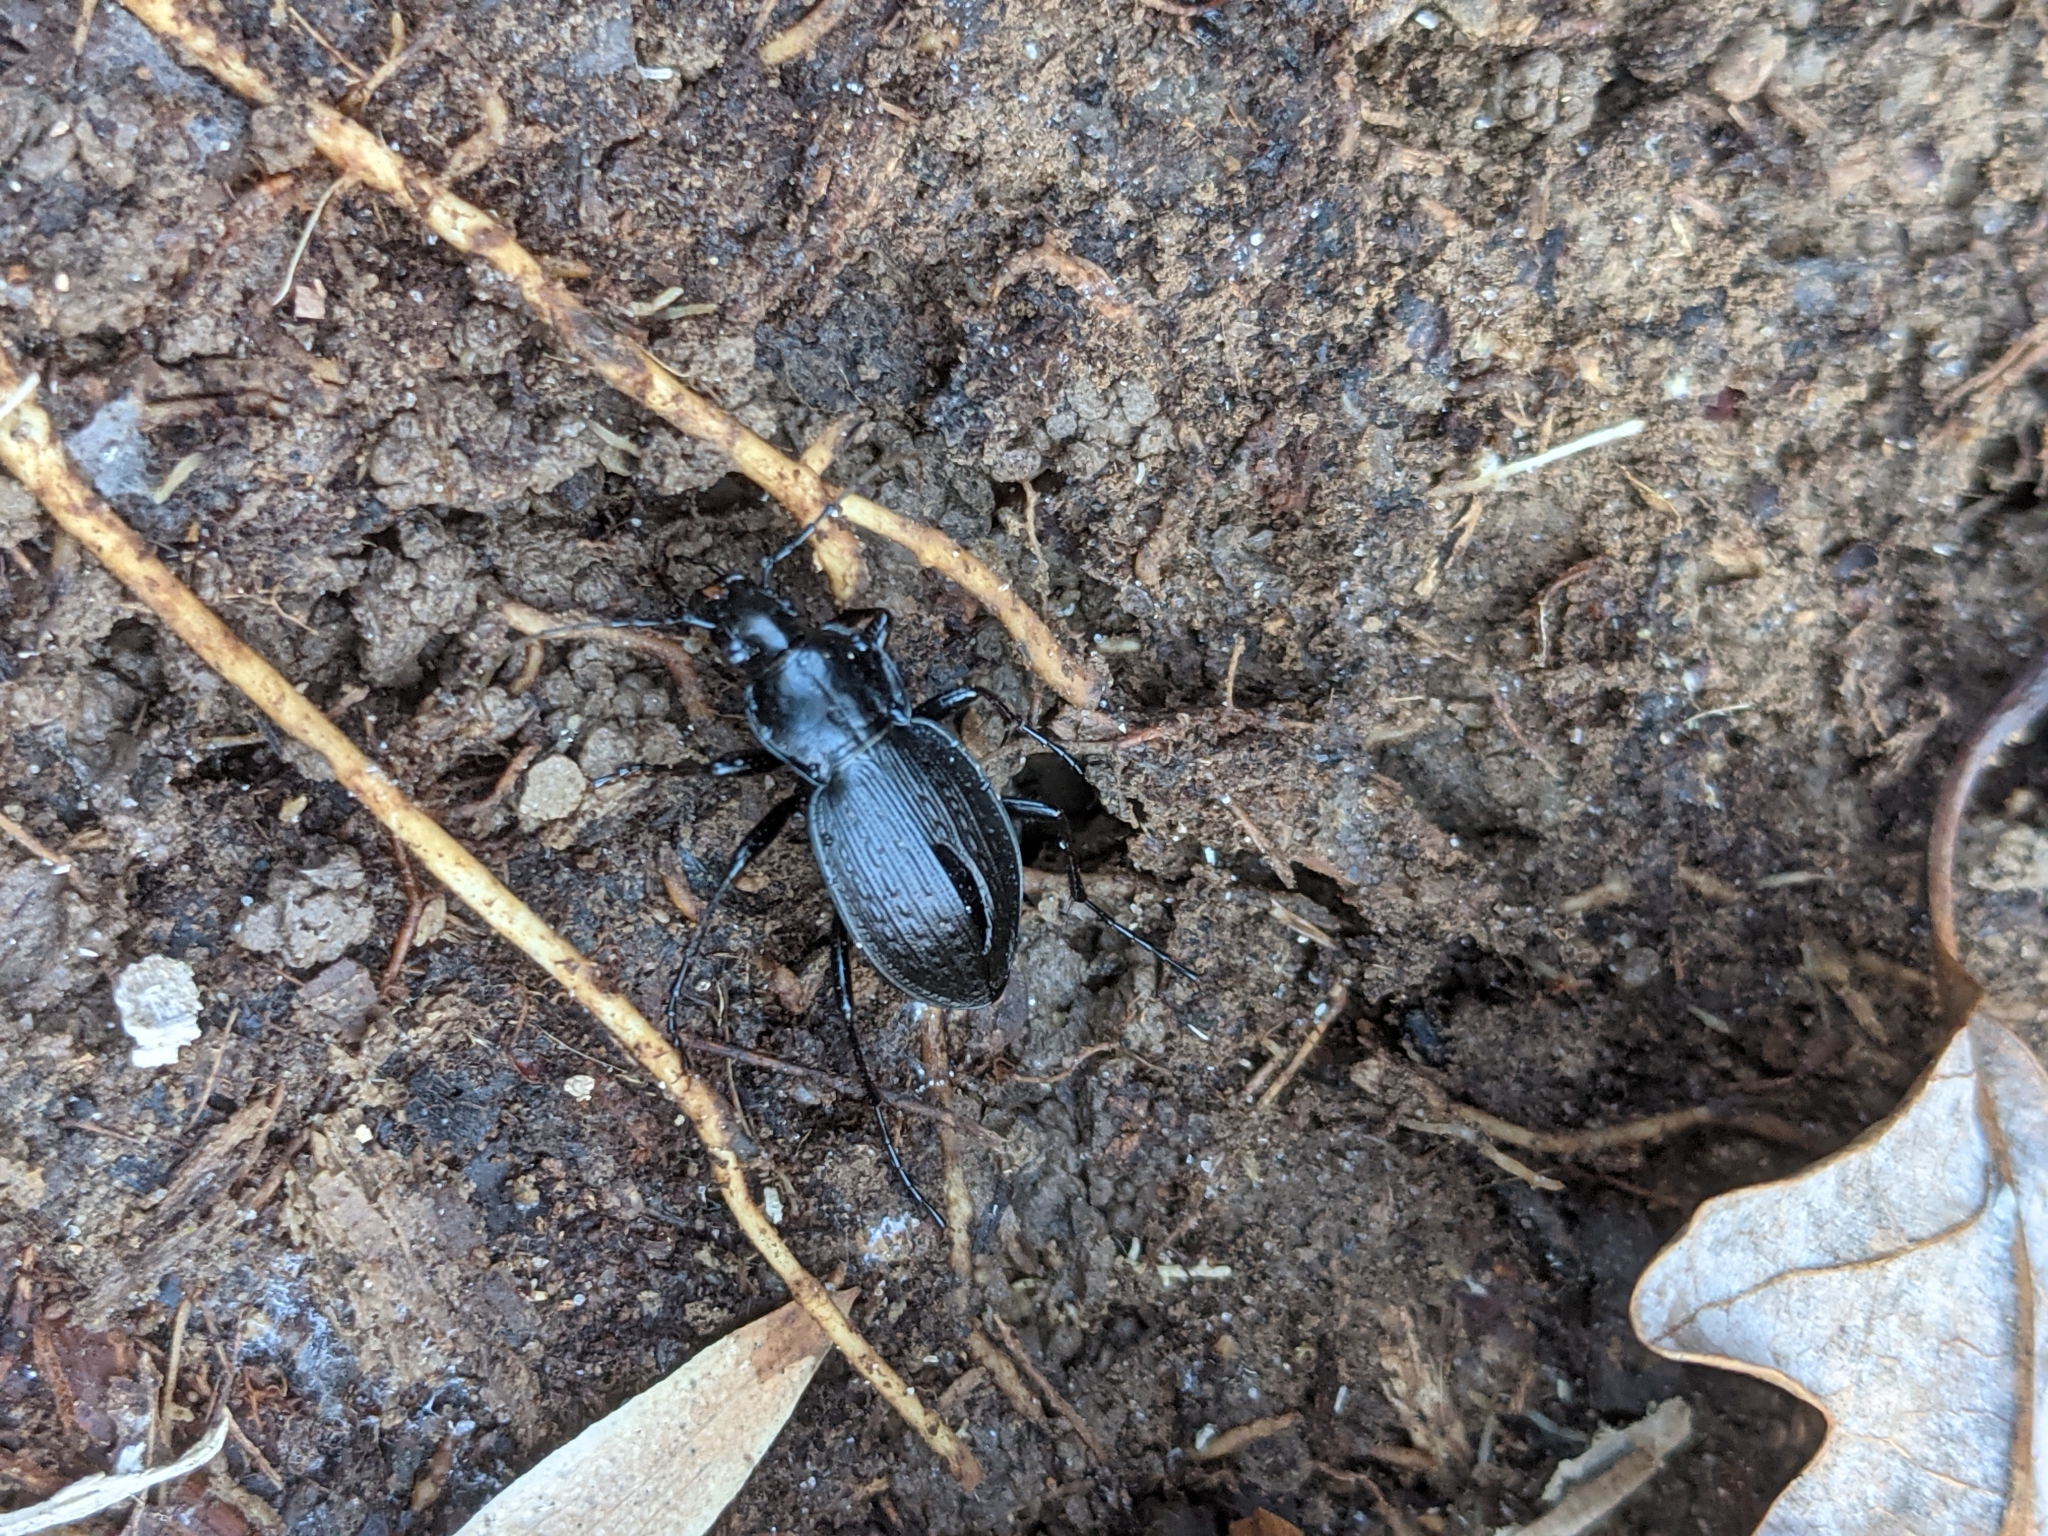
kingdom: Animalia
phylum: Arthropoda
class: Insecta
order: Coleoptera
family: Carabidae
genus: Carabus
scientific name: Carabus vinctus
